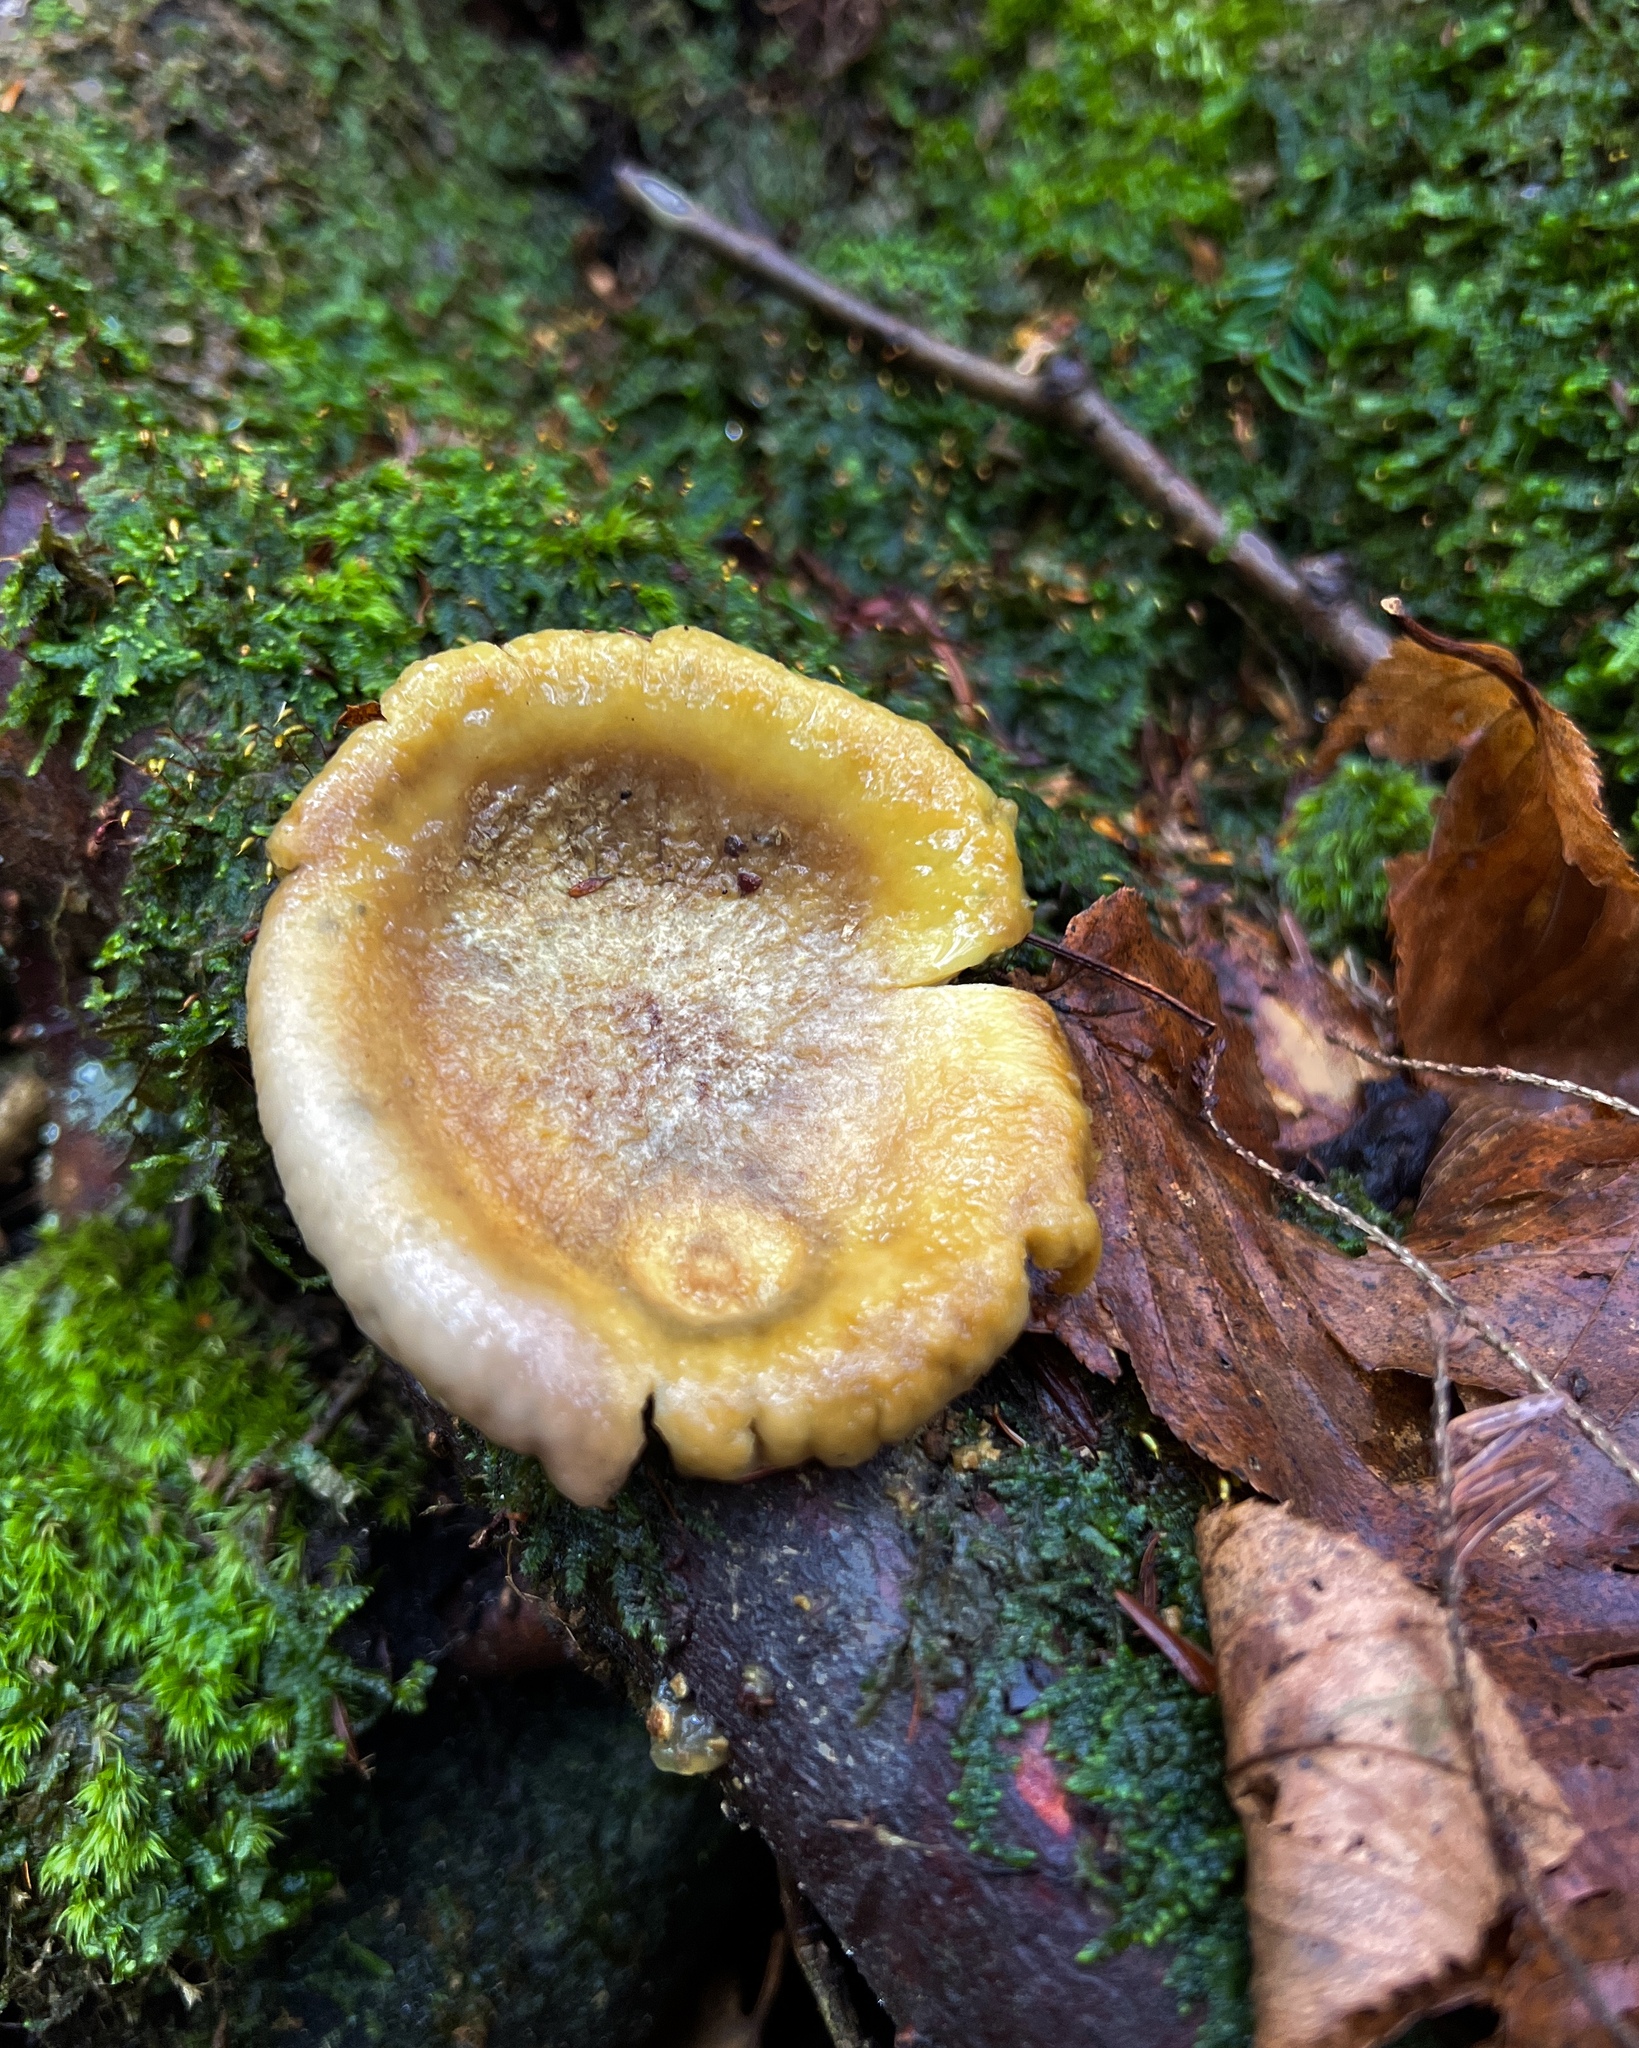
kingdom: Fungi
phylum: Basidiomycota
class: Agaricomycetes
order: Boletales
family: Sclerodermataceae
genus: Scleroderma
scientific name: Scleroderma citrinum
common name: Common earthball
